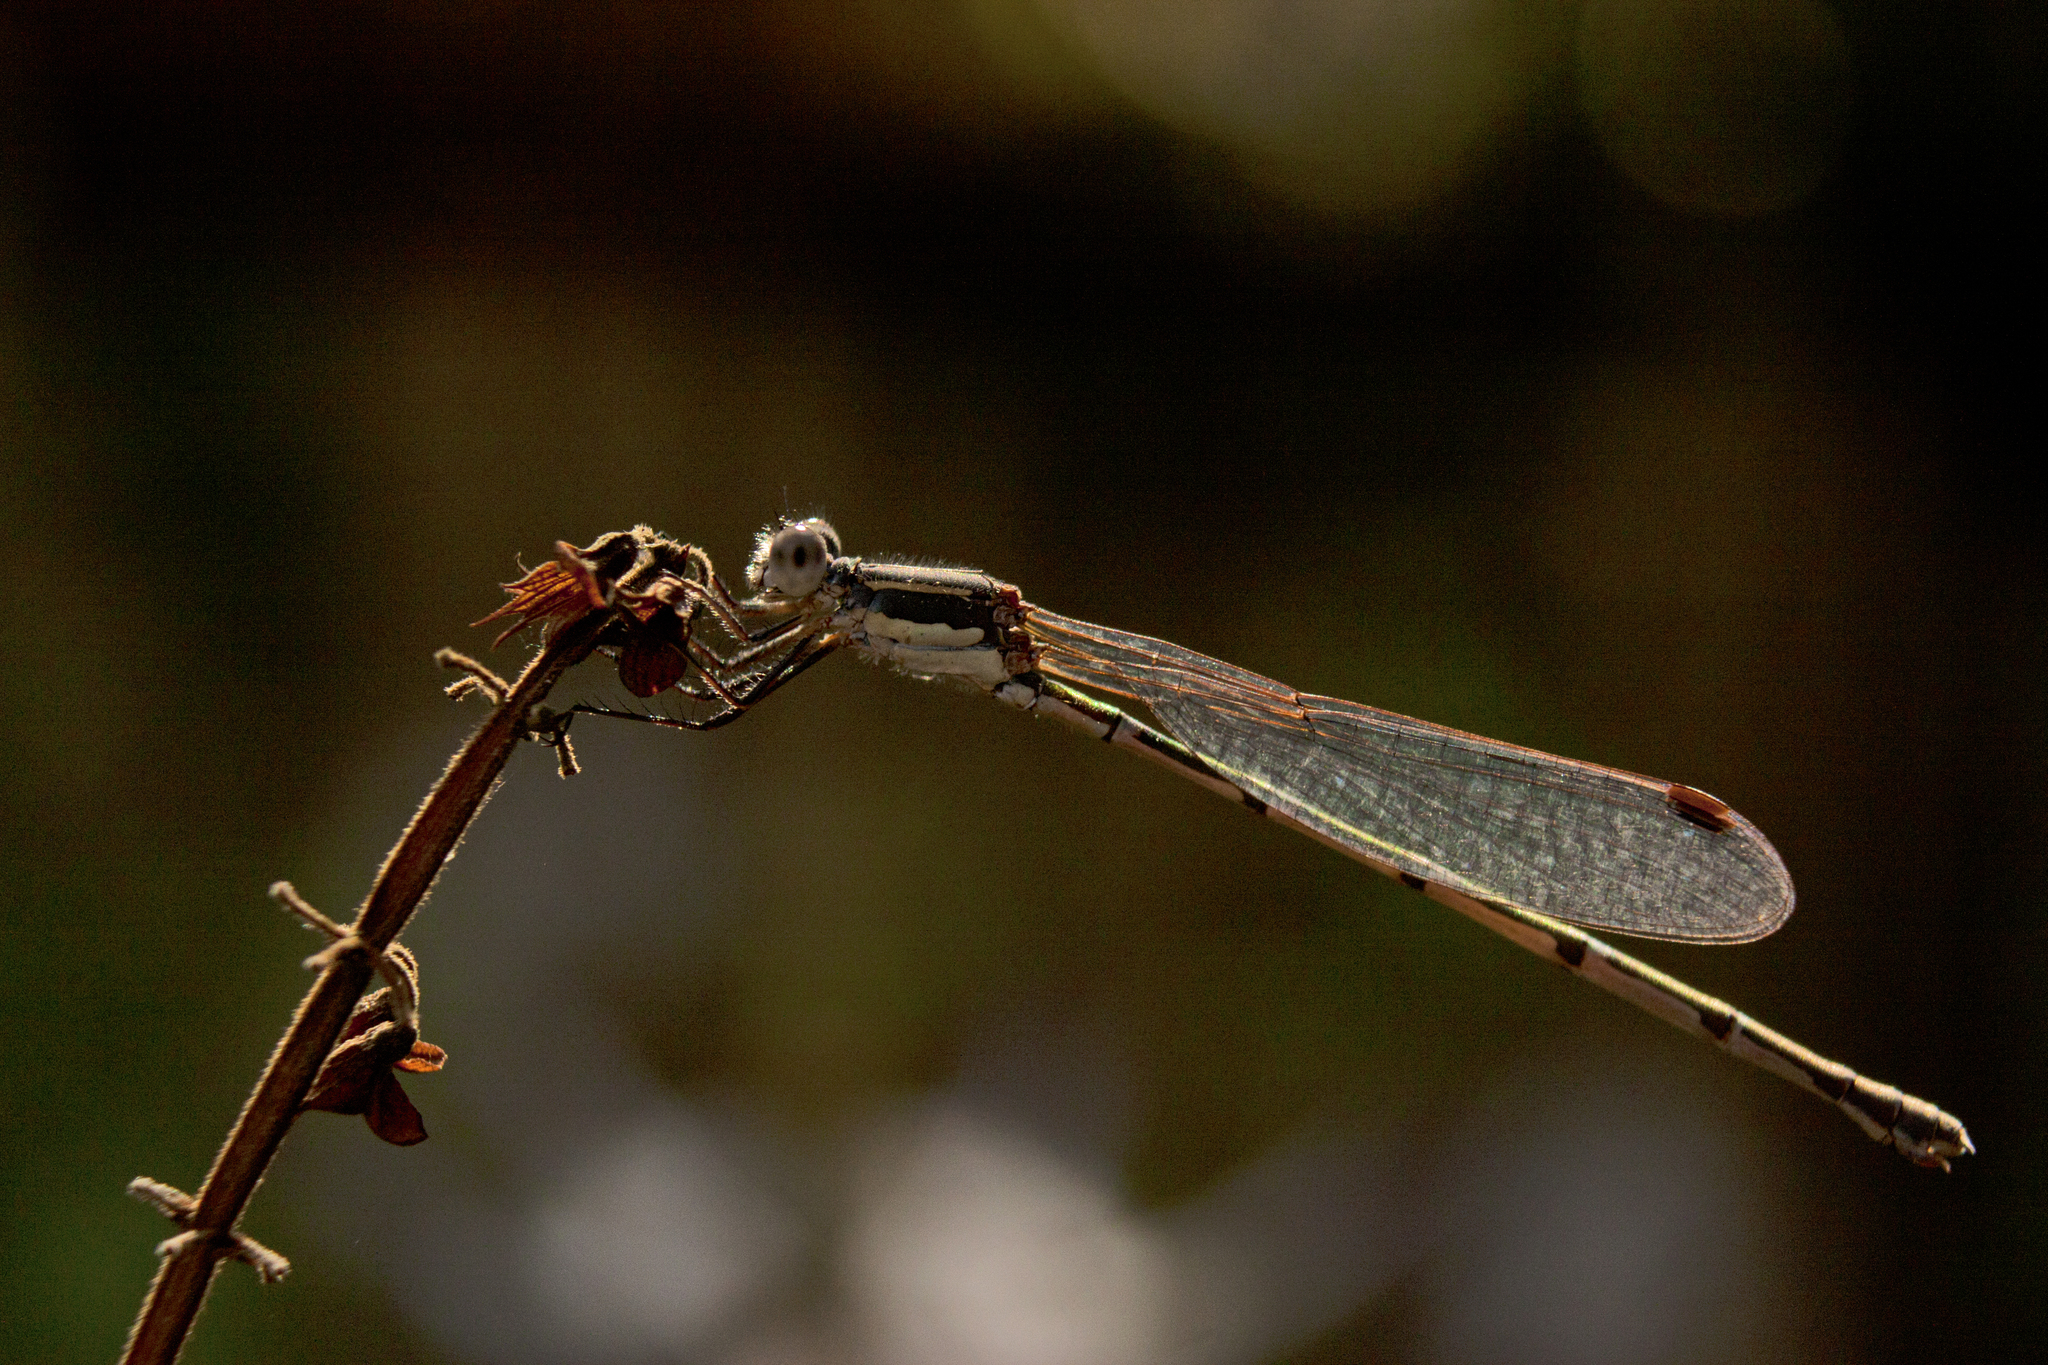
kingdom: Animalia
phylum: Arthropoda
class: Insecta
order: Odonata
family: Lestidae
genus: Austrolestes
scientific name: Austrolestes leda
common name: Wandering ringtail
